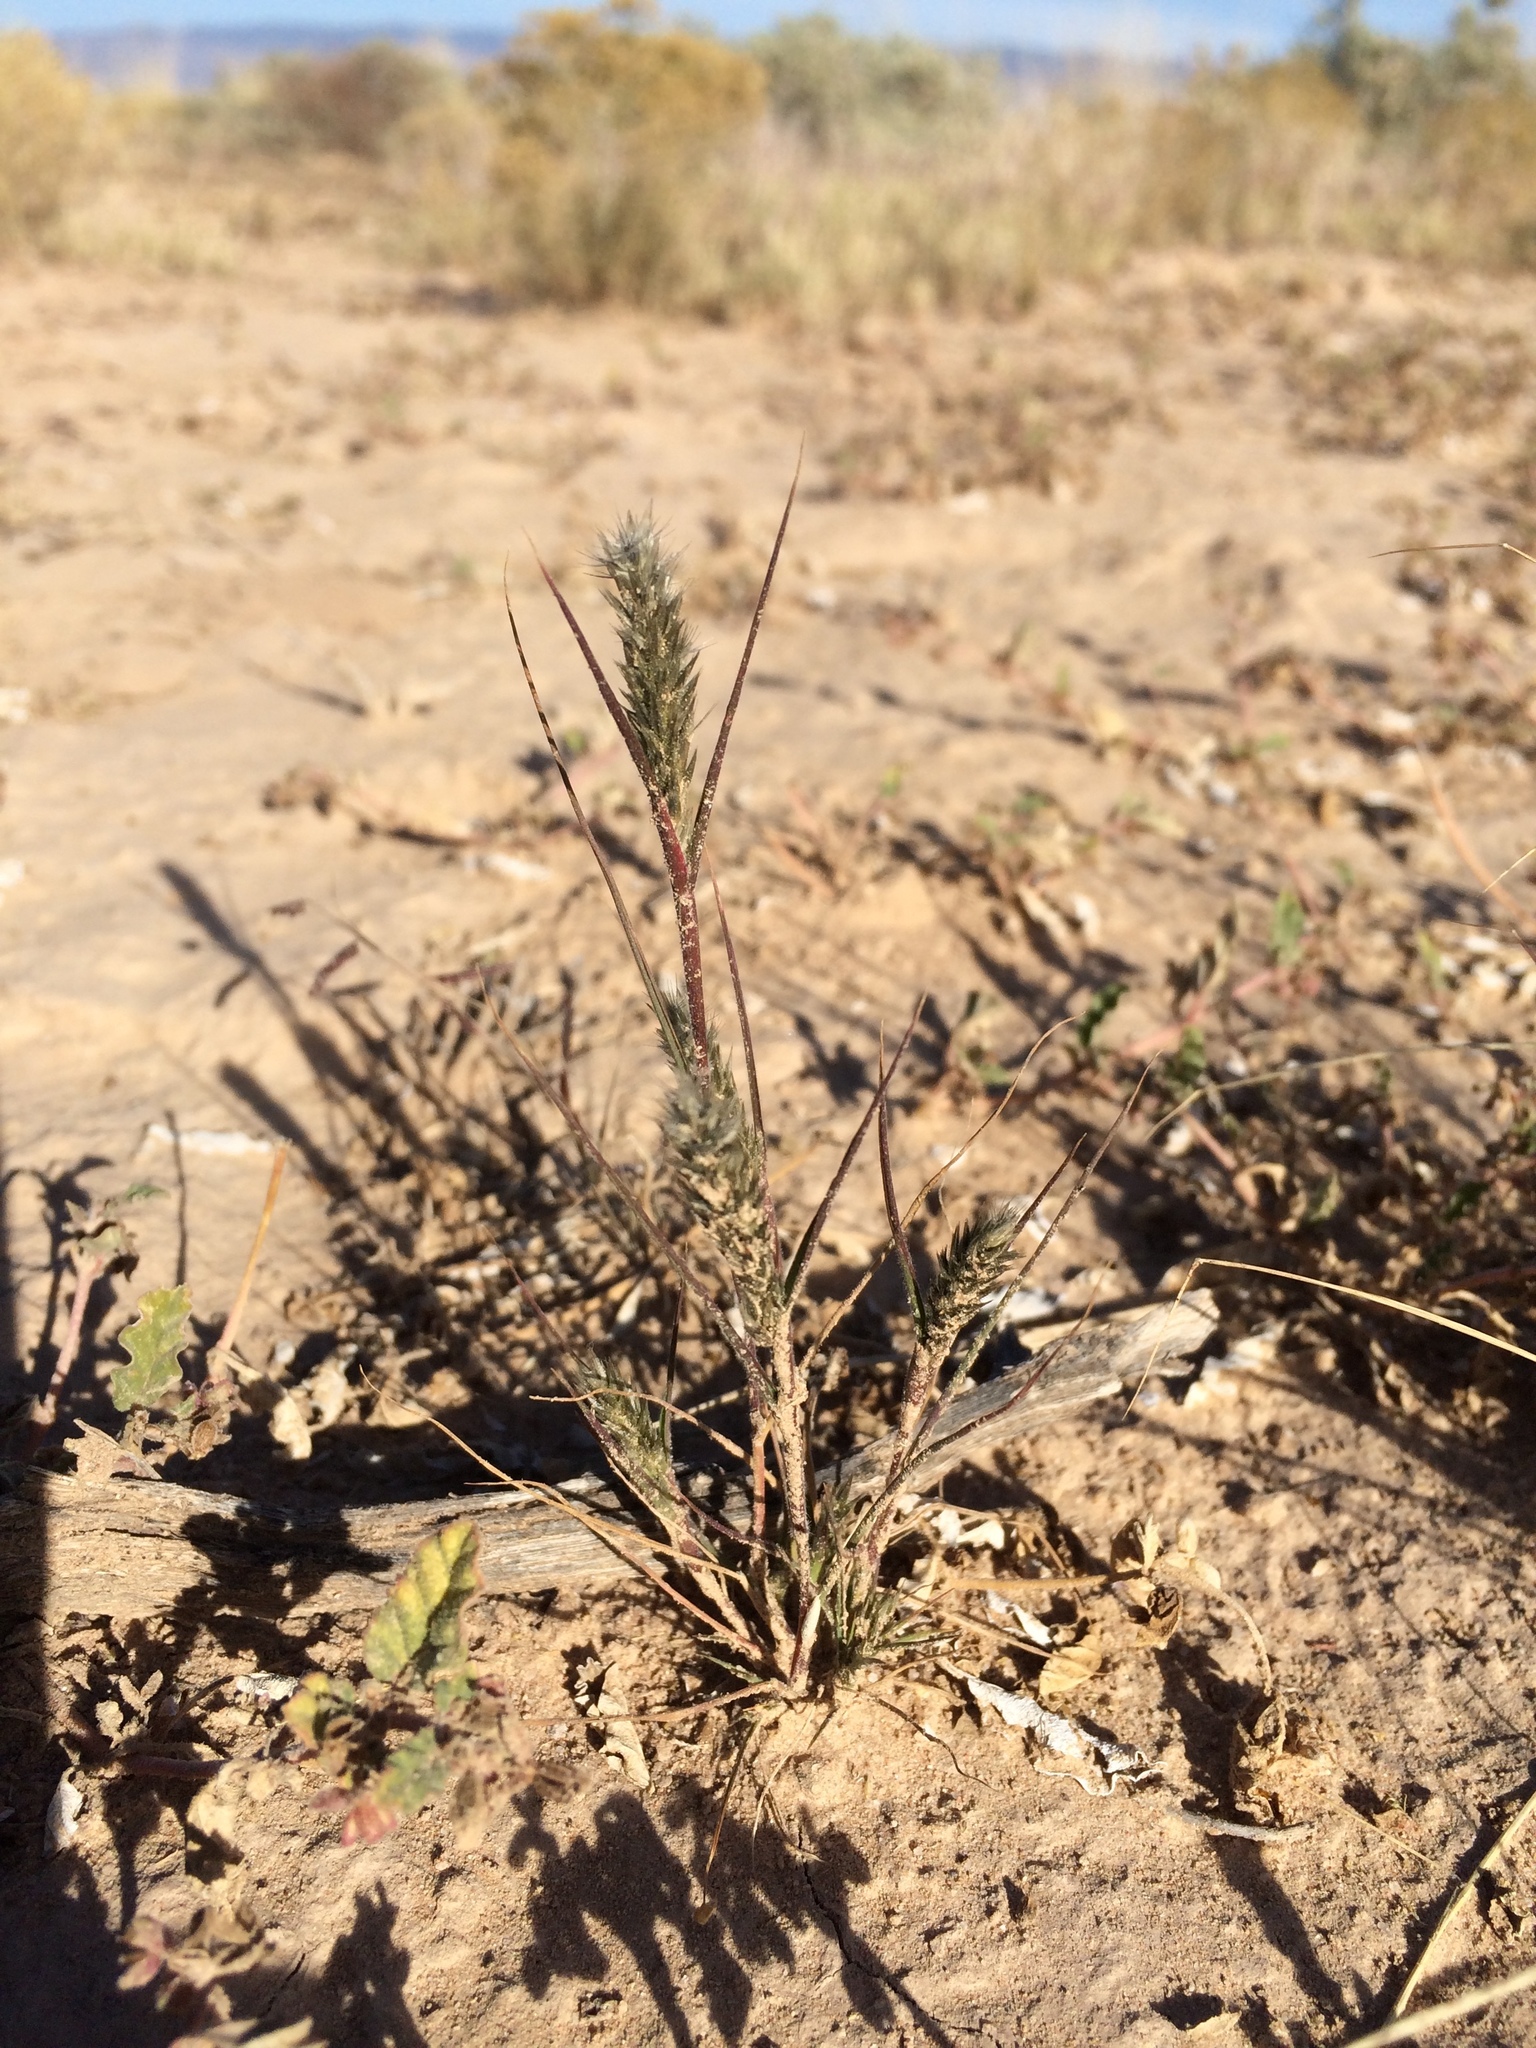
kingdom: Plantae
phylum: Tracheophyta
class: Liliopsida
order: Poales
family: Poaceae
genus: Enneapogon
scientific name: Enneapogon desvauxii
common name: Feather pappus grass
